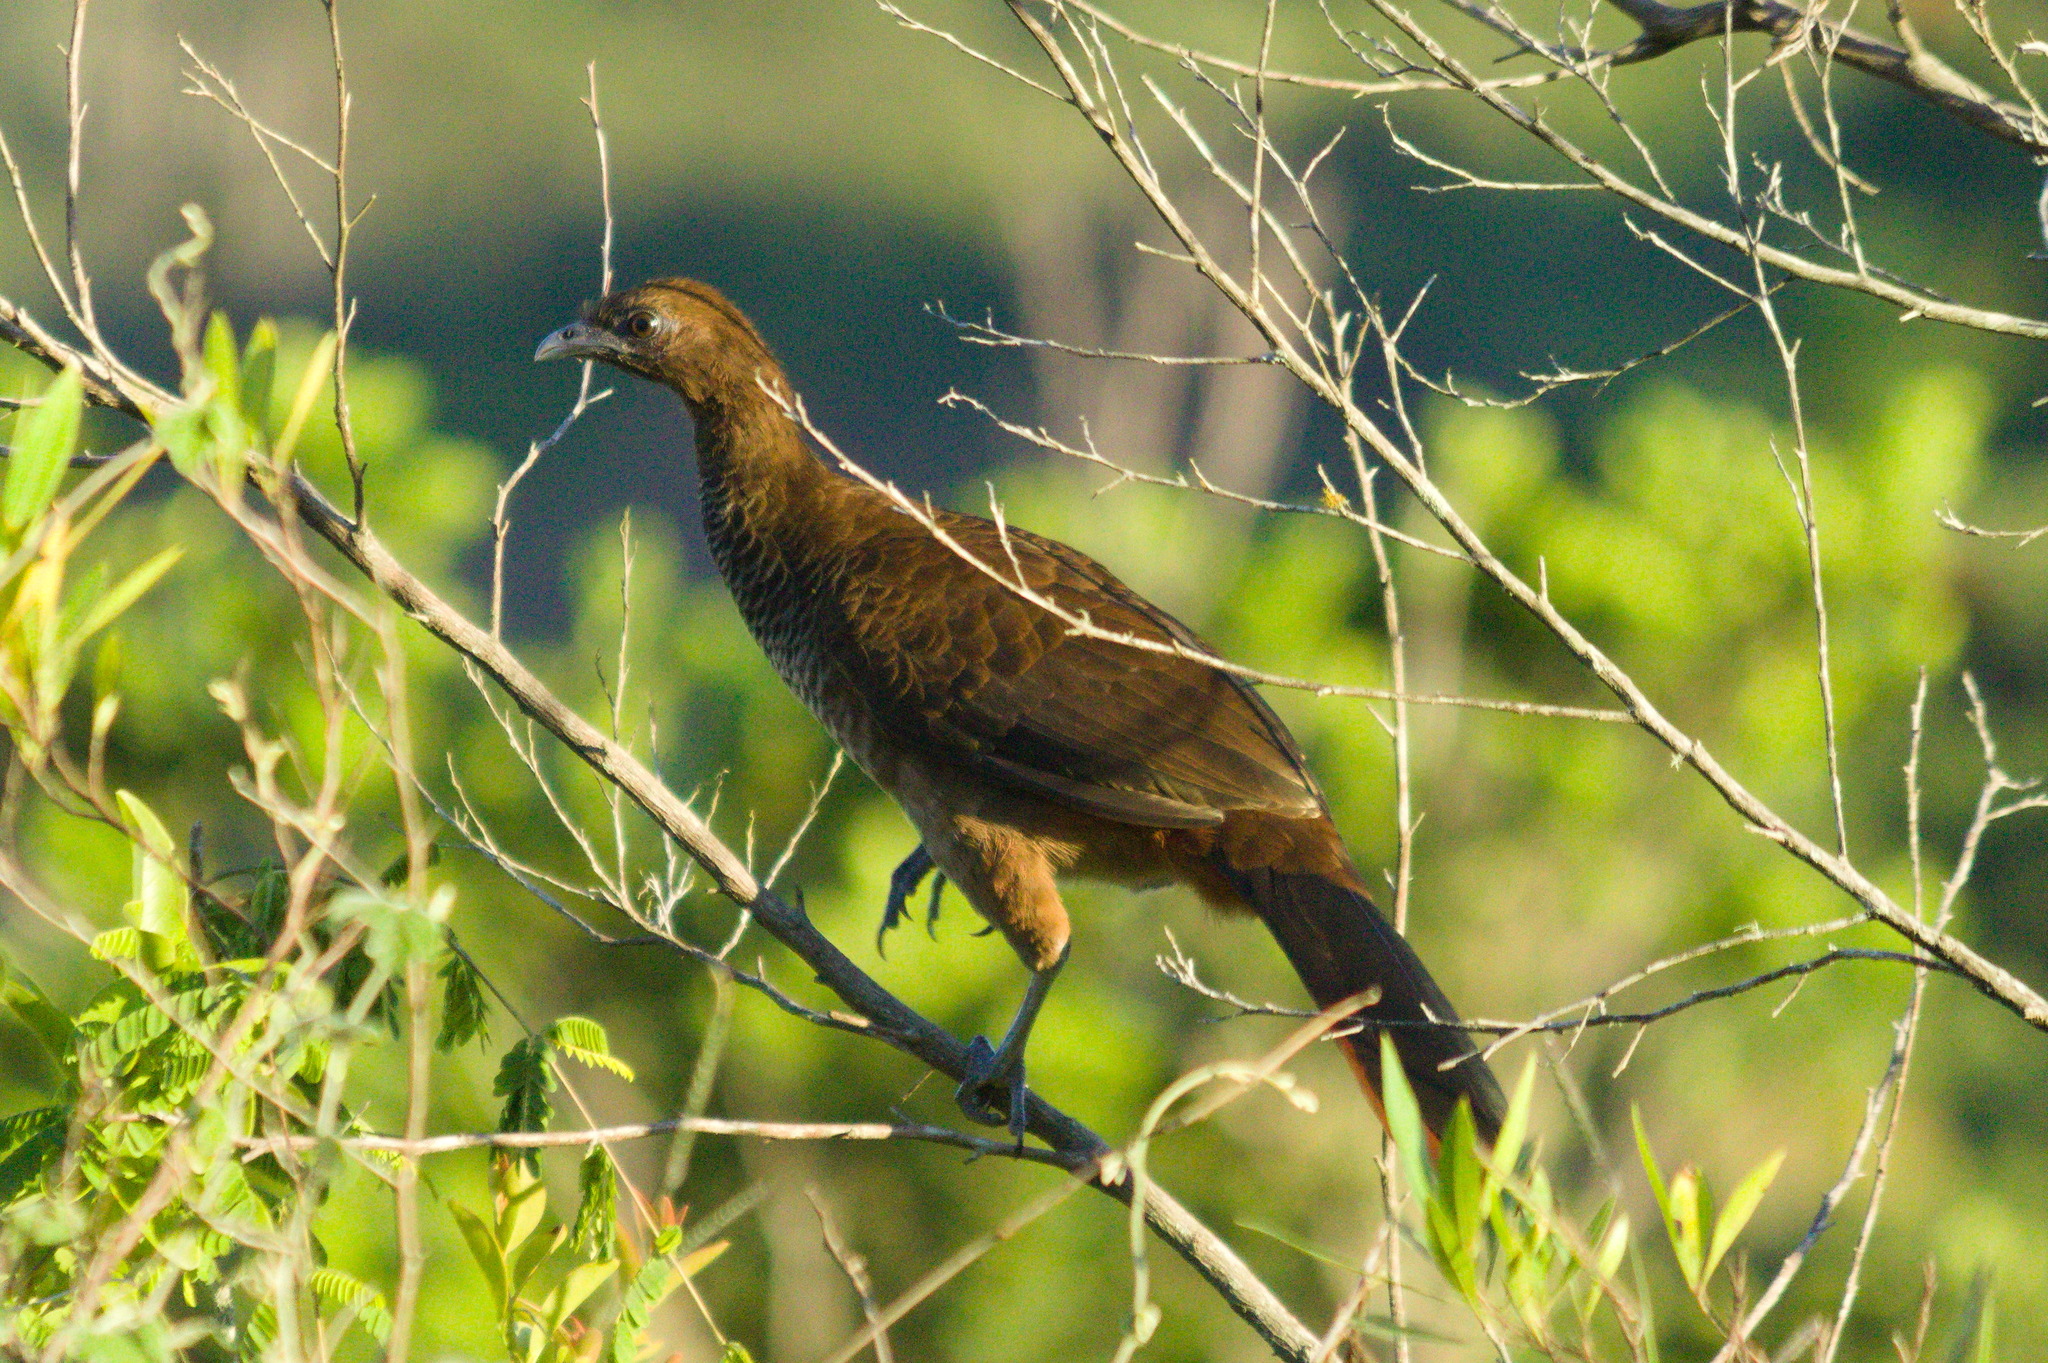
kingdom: Animalia
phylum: Chordata
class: Aves
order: Galliformes
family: Cracidae
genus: Ortalis
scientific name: Ortalis squamata
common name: Scaled chachalaca
